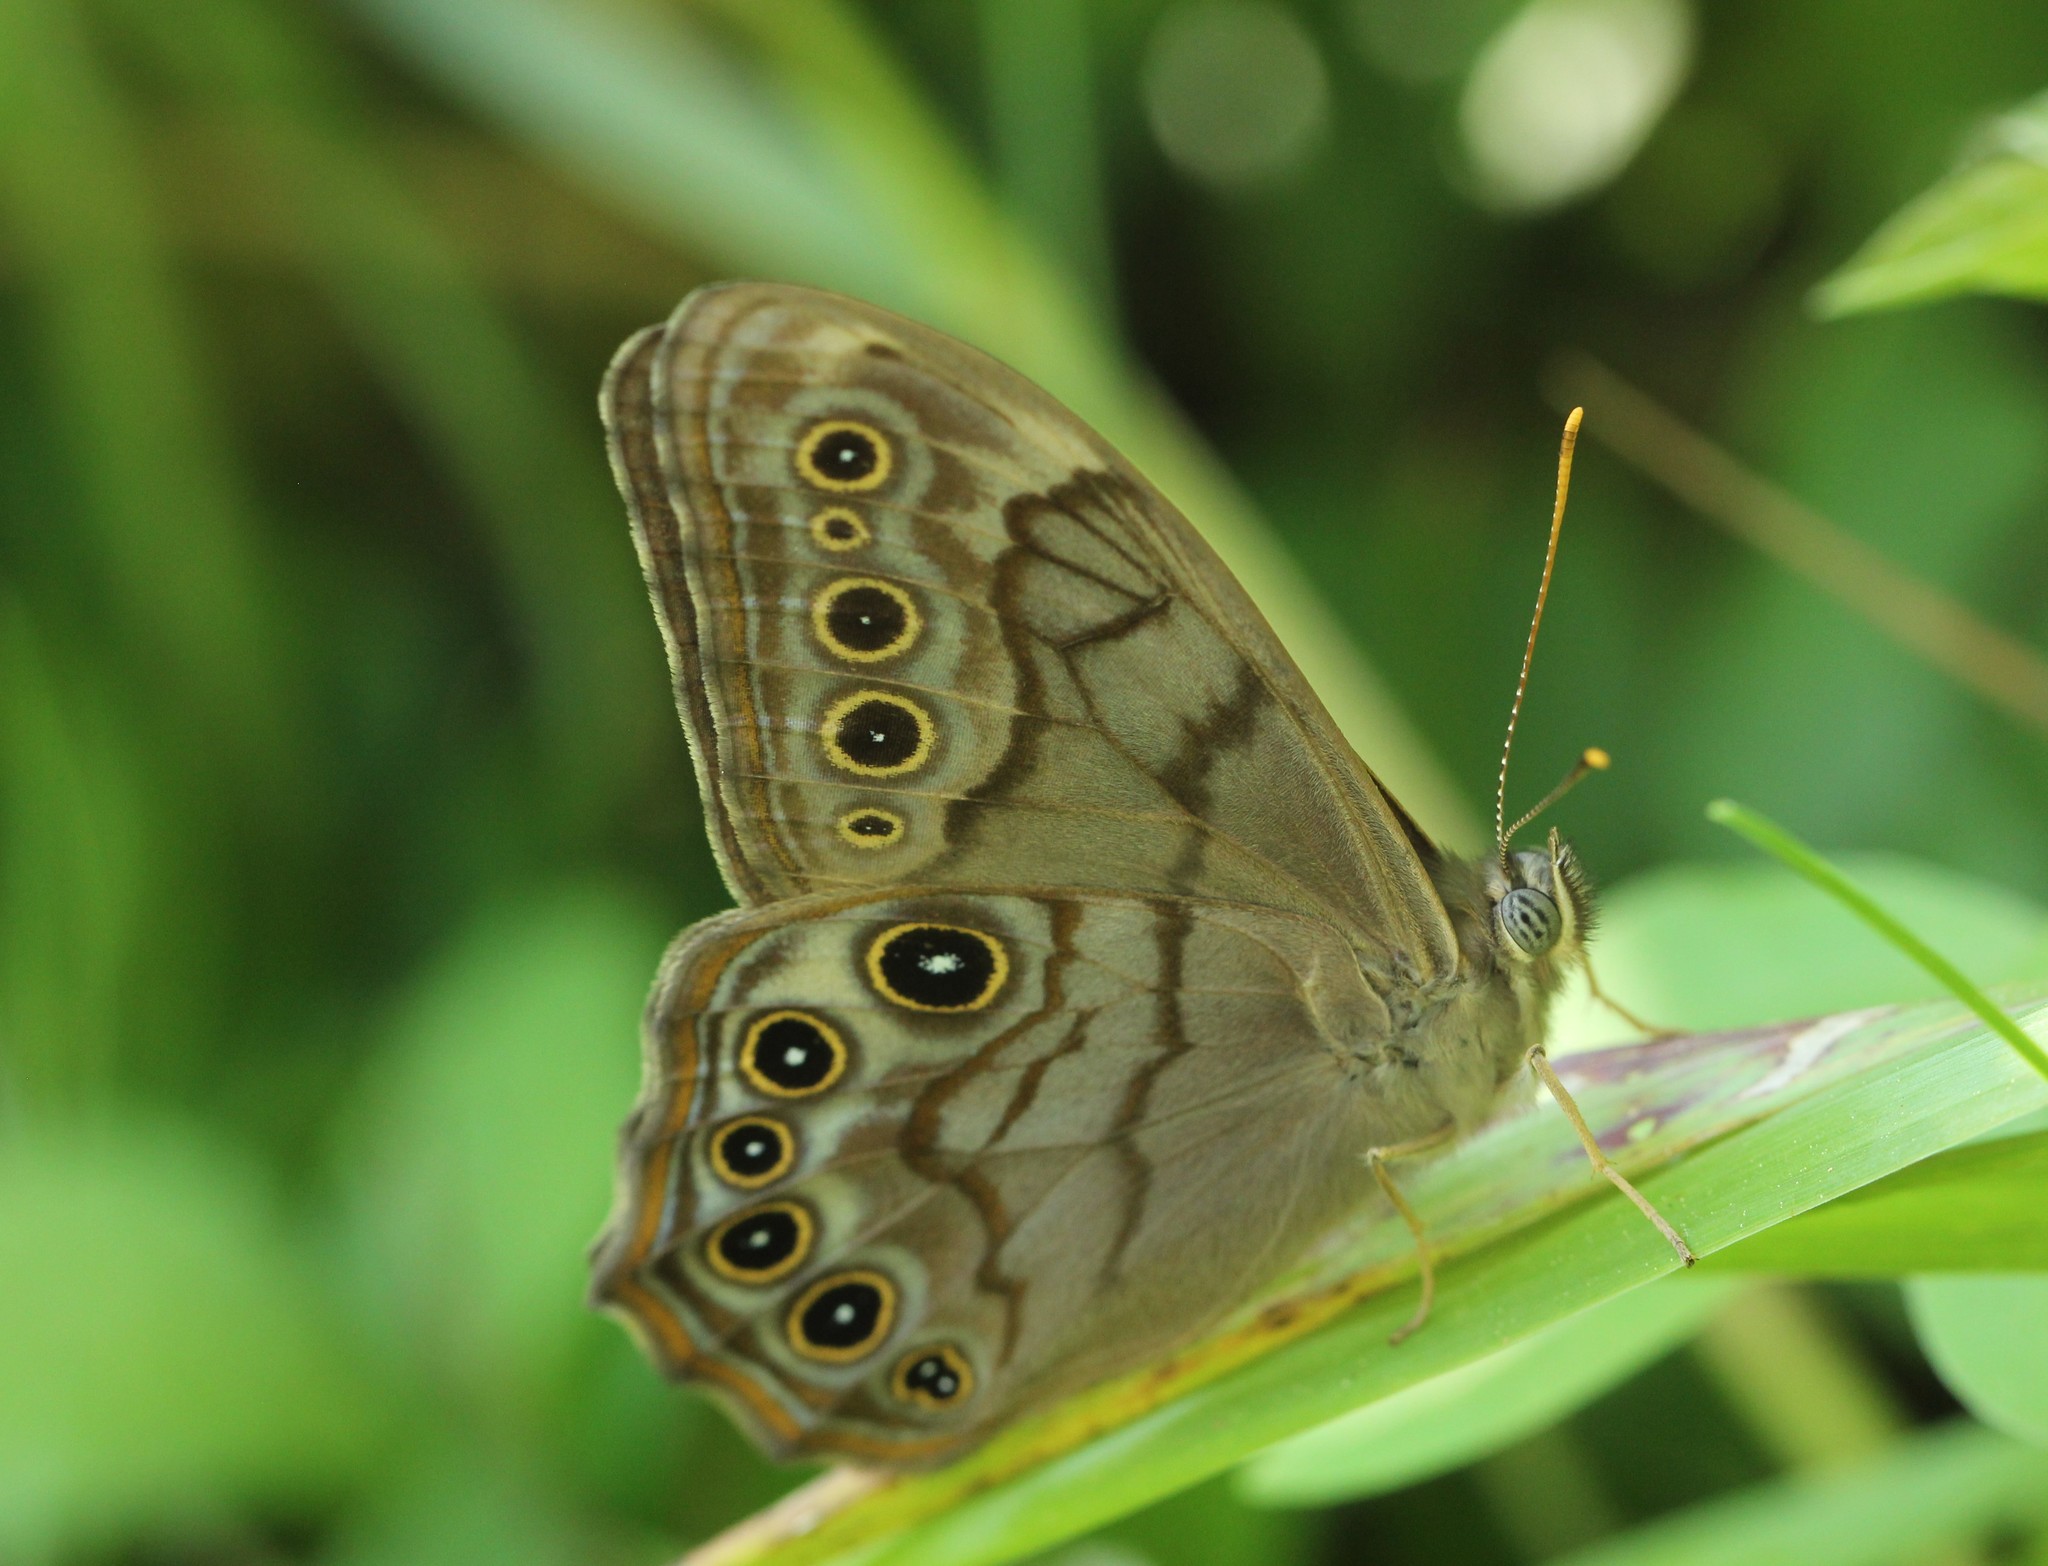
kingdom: Animalia
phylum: Arthropoda
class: Insecta
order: Lepidoptera
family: Nymphalidae
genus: Lethe
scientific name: Lethe creola
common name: Creole pearly-eye
